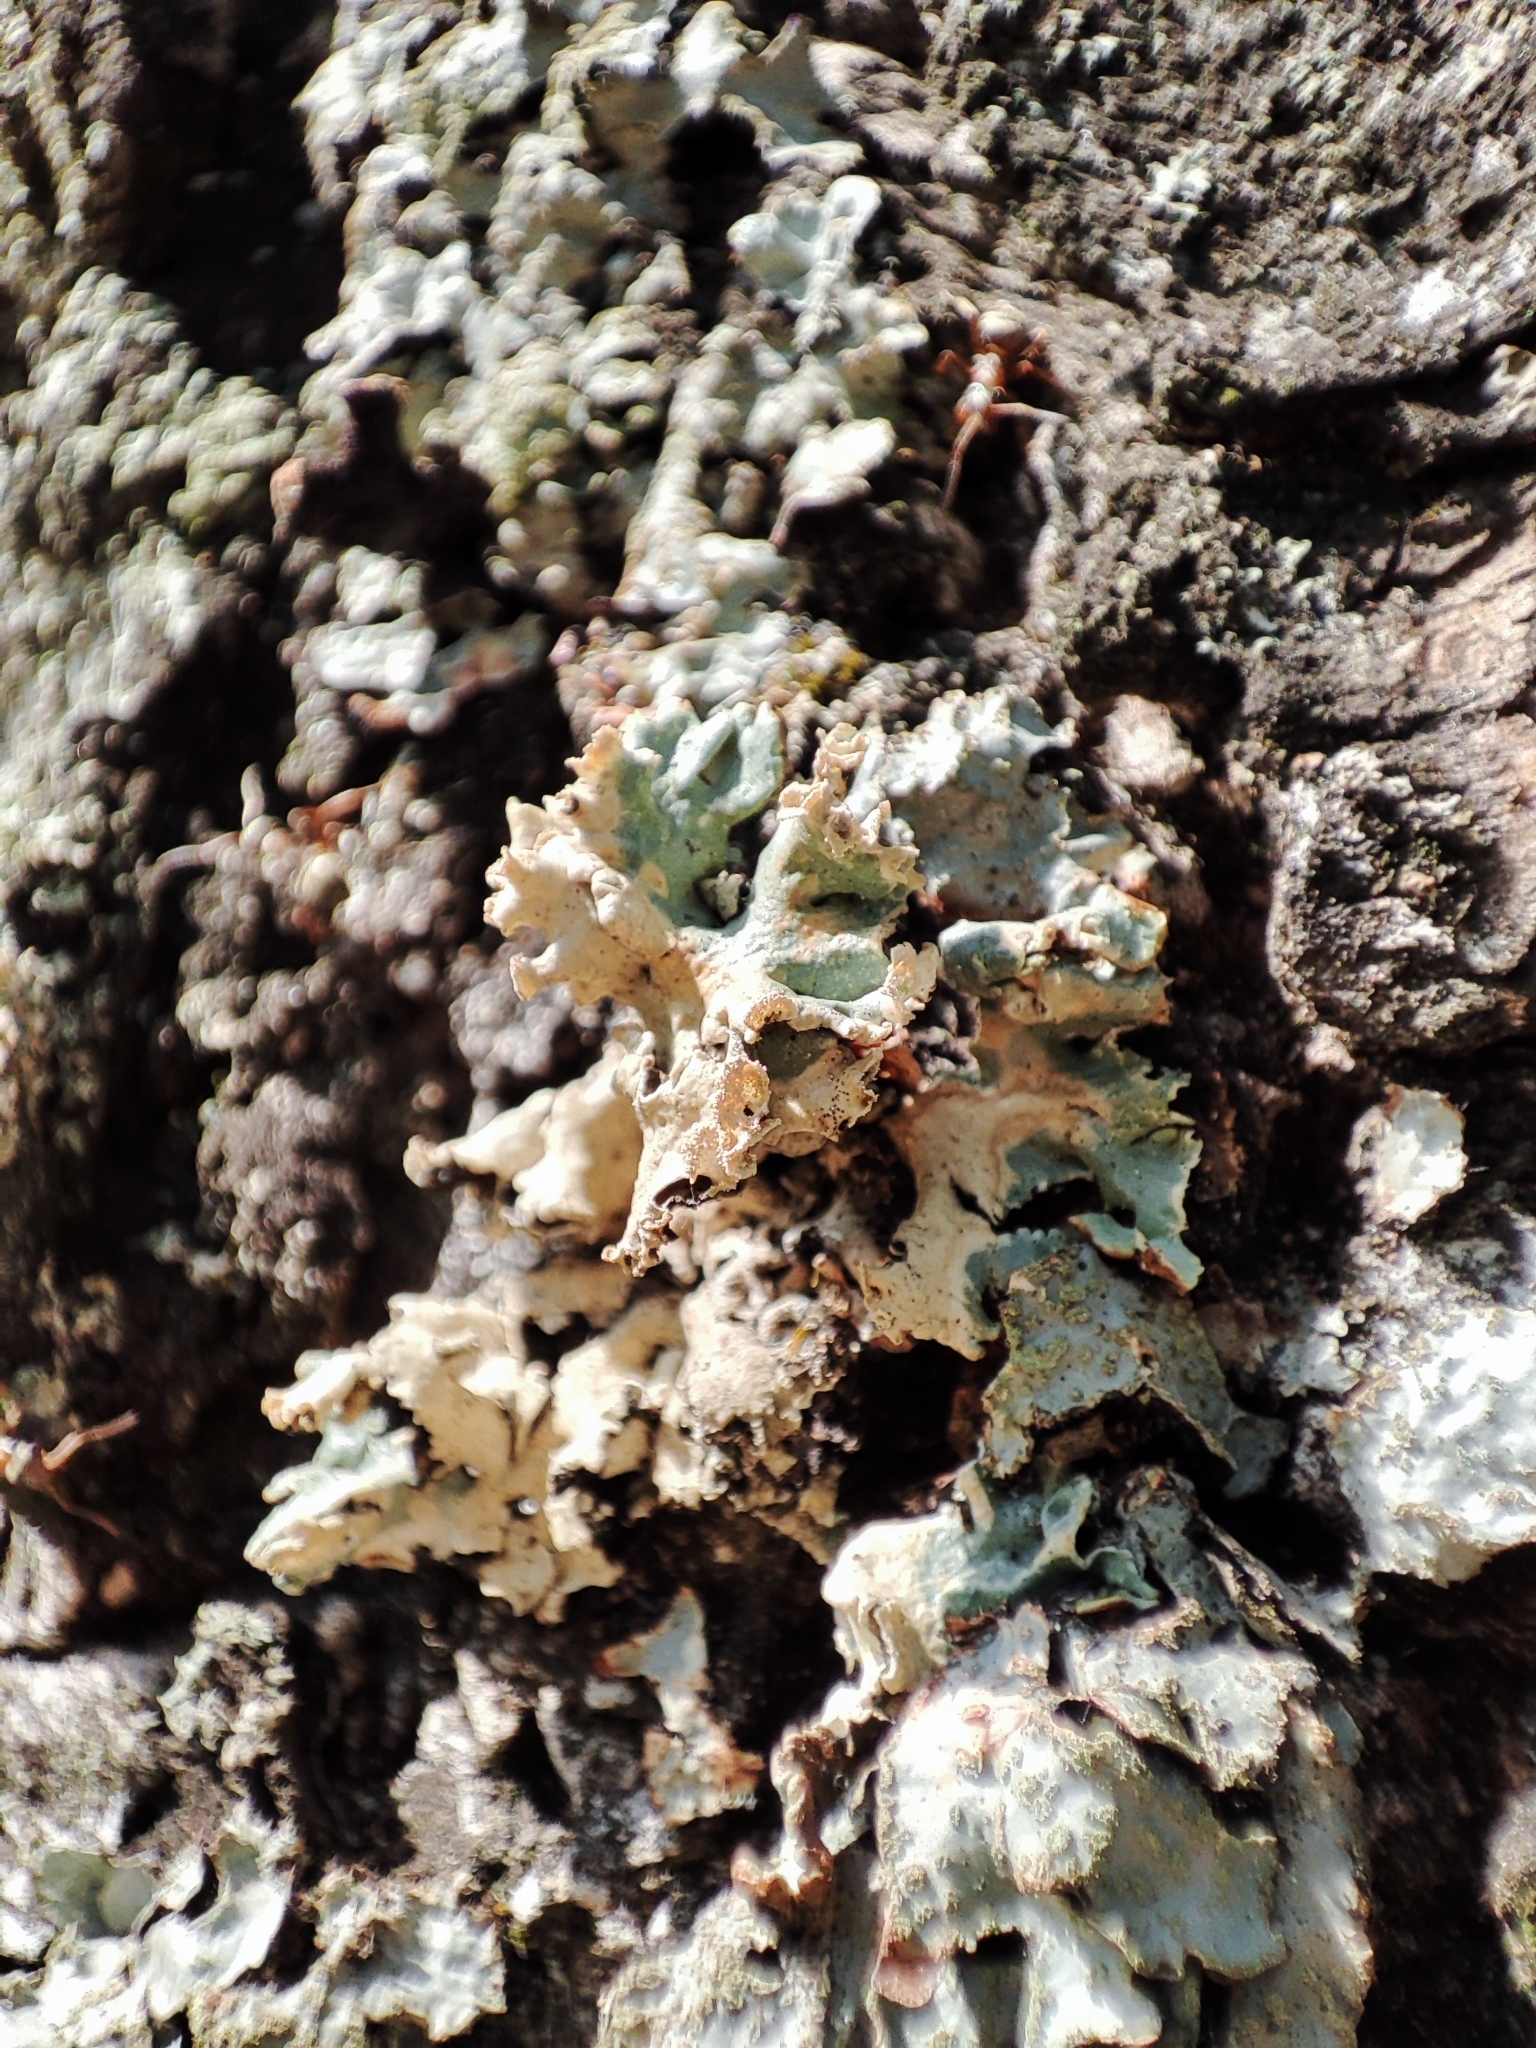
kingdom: Fungi
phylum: Ascomycota
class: Lecanoromycetes
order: Lecanorales
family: Parmeliaceae
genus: Hypogymnia
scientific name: Hypogymnia physodes
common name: Dark crottle
